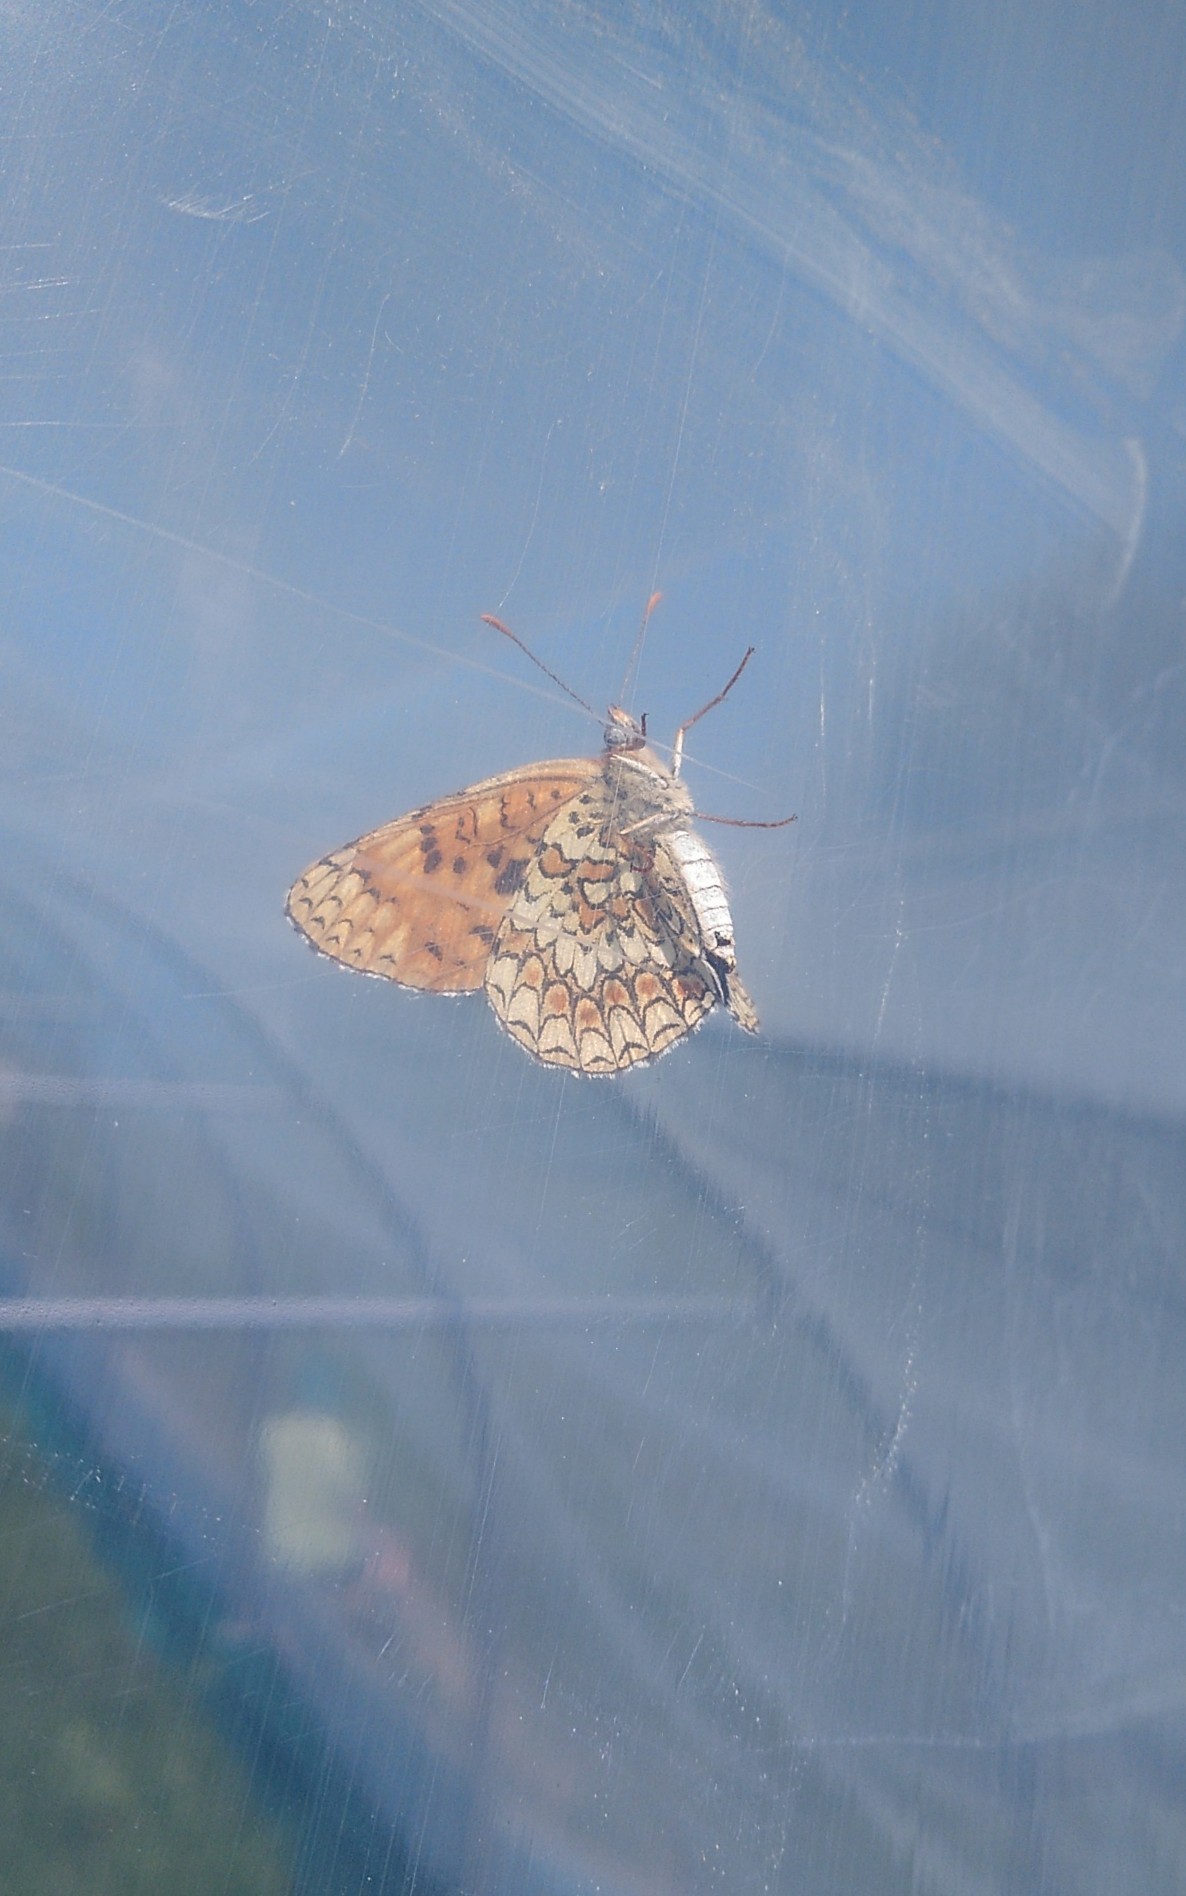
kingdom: Animalia
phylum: Arthropoda
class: Insecta
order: Lepidoptera
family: Nymphalidae
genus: Melitaea
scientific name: Melitaea phoebe
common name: Knapweed fritillary
